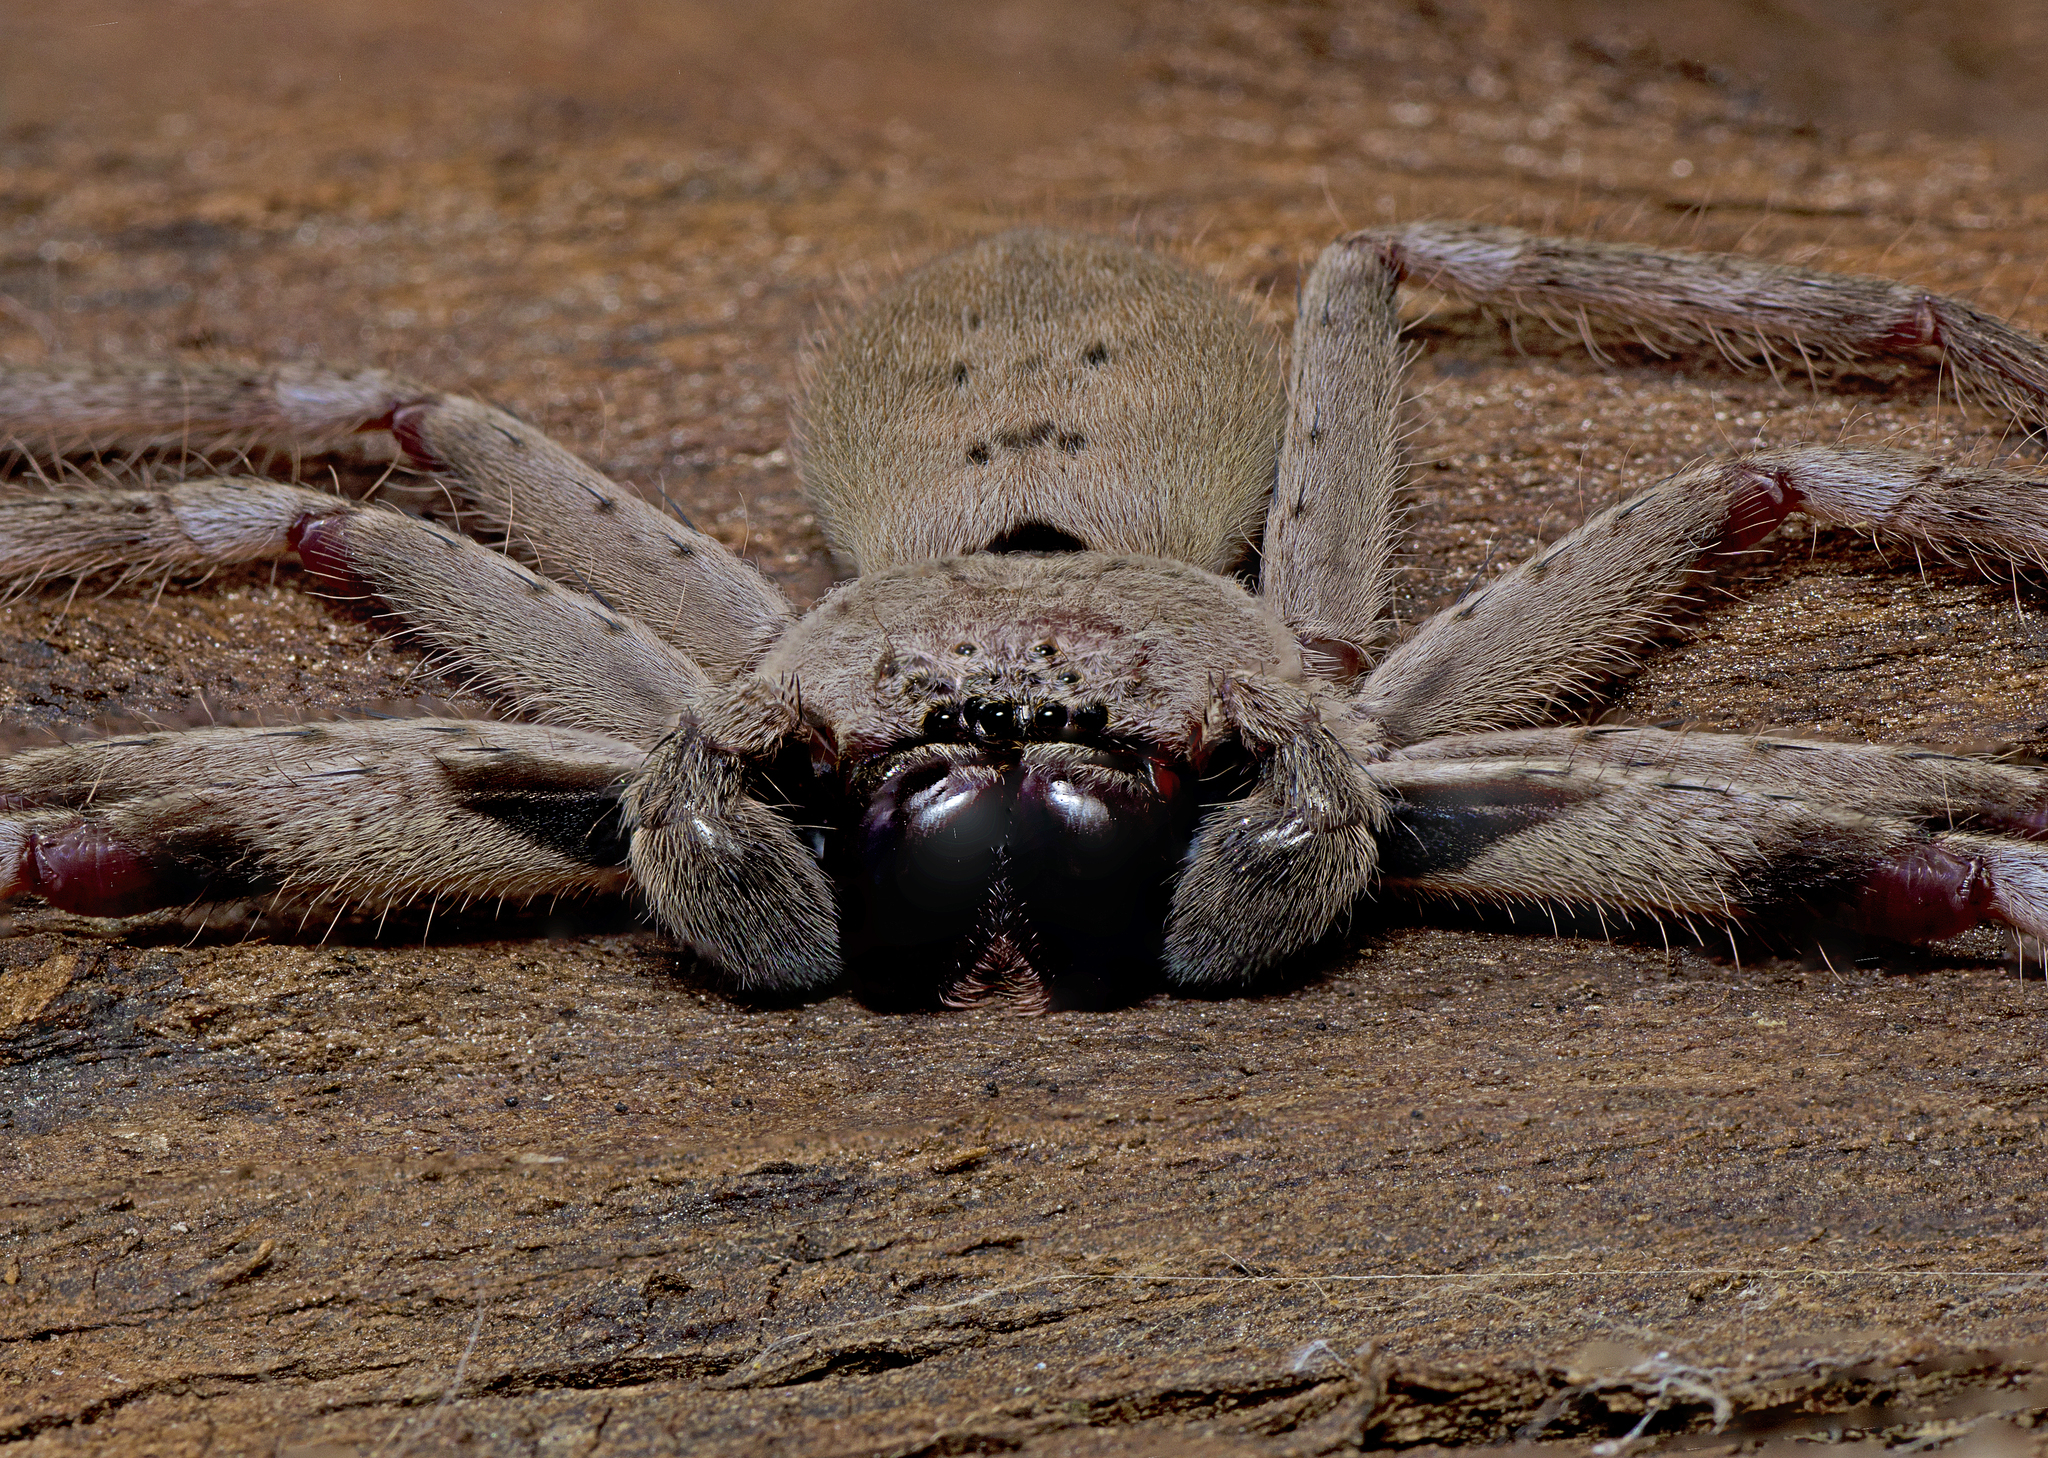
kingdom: Animalia
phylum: Arthropoda
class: Arachnida
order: Araneae
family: Sparassidae
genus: Isopeda
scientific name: Isopeda vasta
